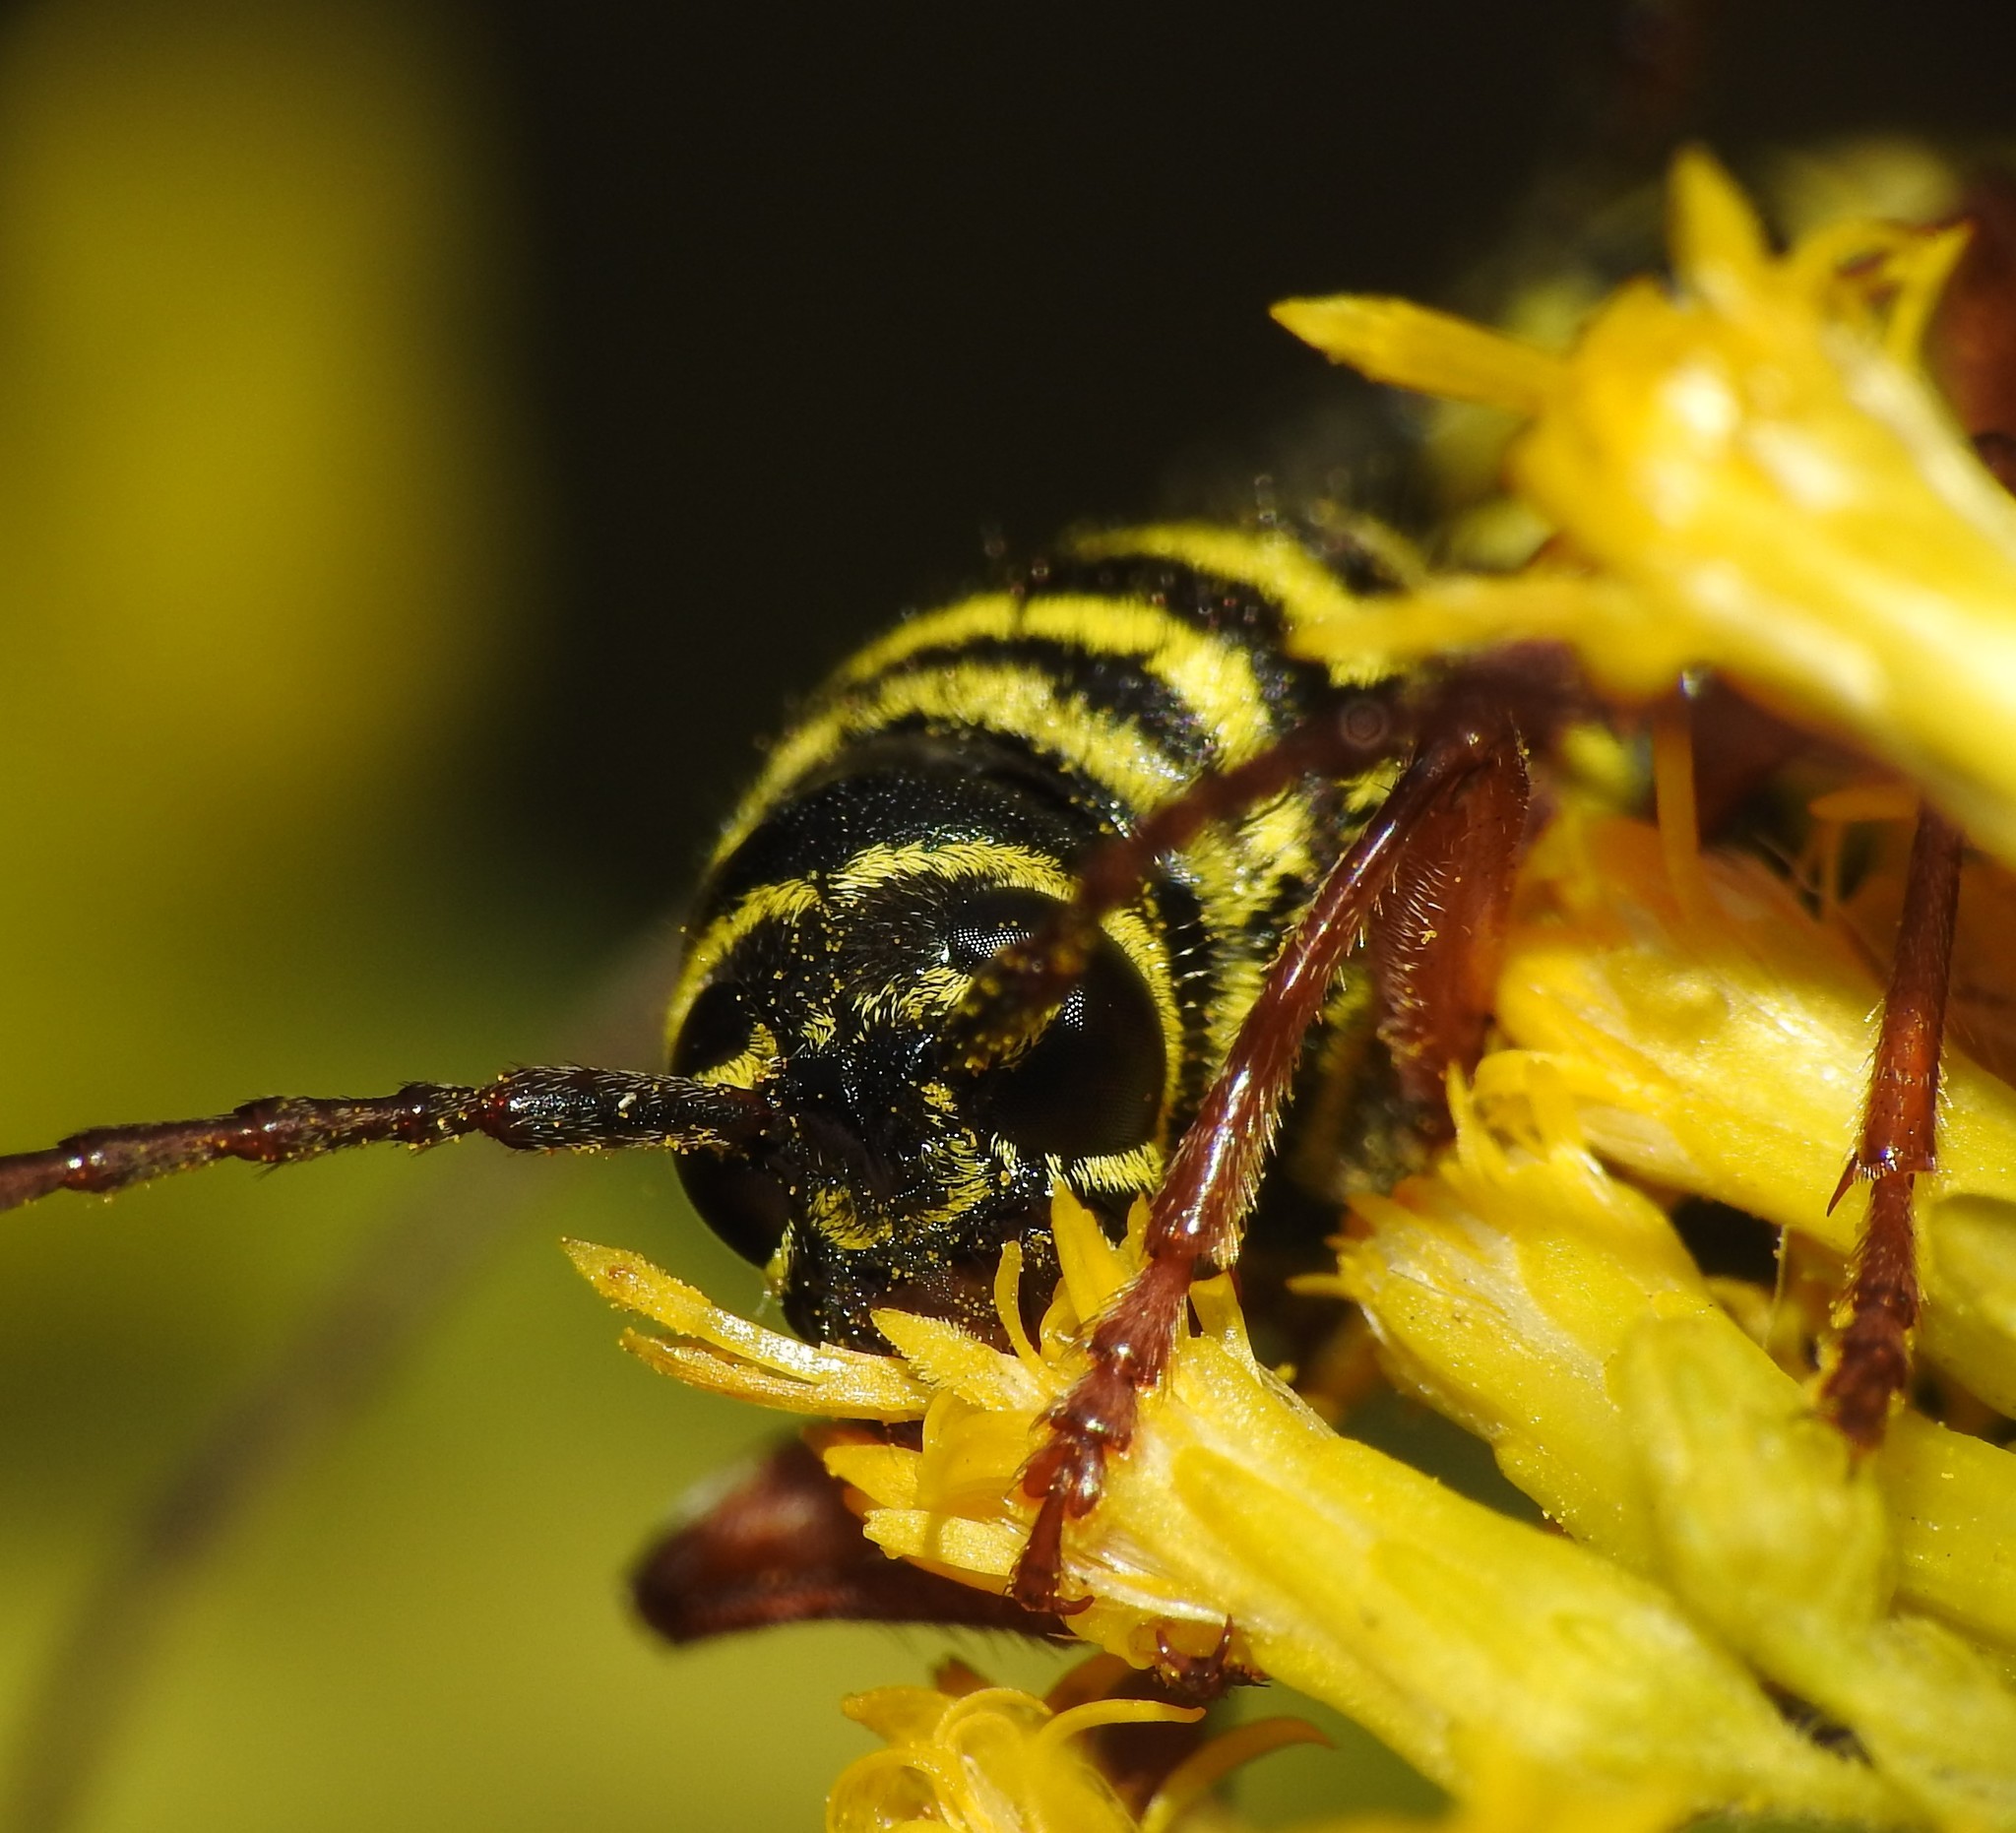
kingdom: Animalia
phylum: Arthropoda
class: Insecta
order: Coleoptera
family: Cerambycidae
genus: Megacyllene
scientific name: Megacyllene robiniae
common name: Locust borer
